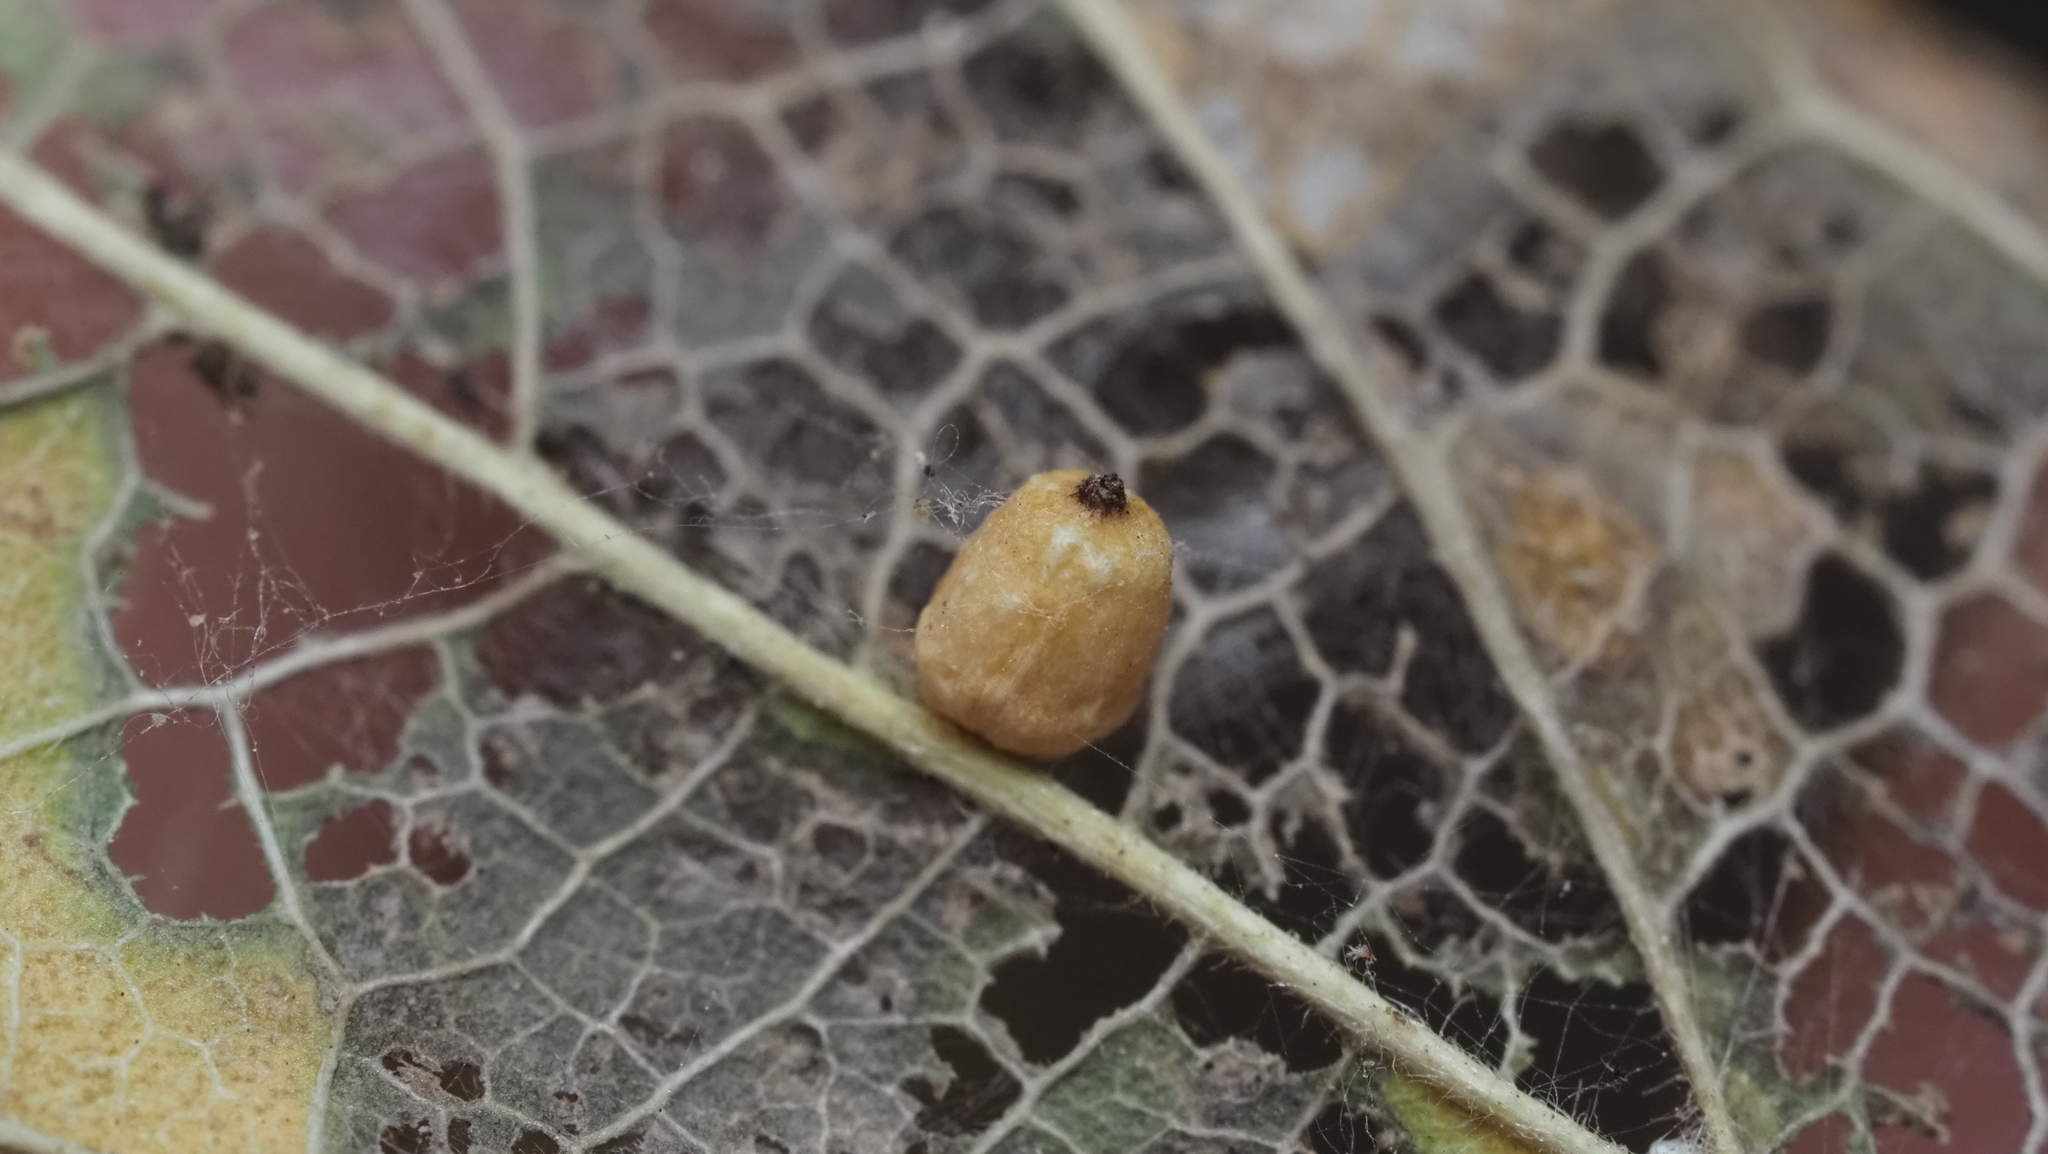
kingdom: Animalia
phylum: Arthropoda
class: Insecta
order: Diptera
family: Cecidomyiidae
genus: Celticecis
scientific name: Celticecis globosa
